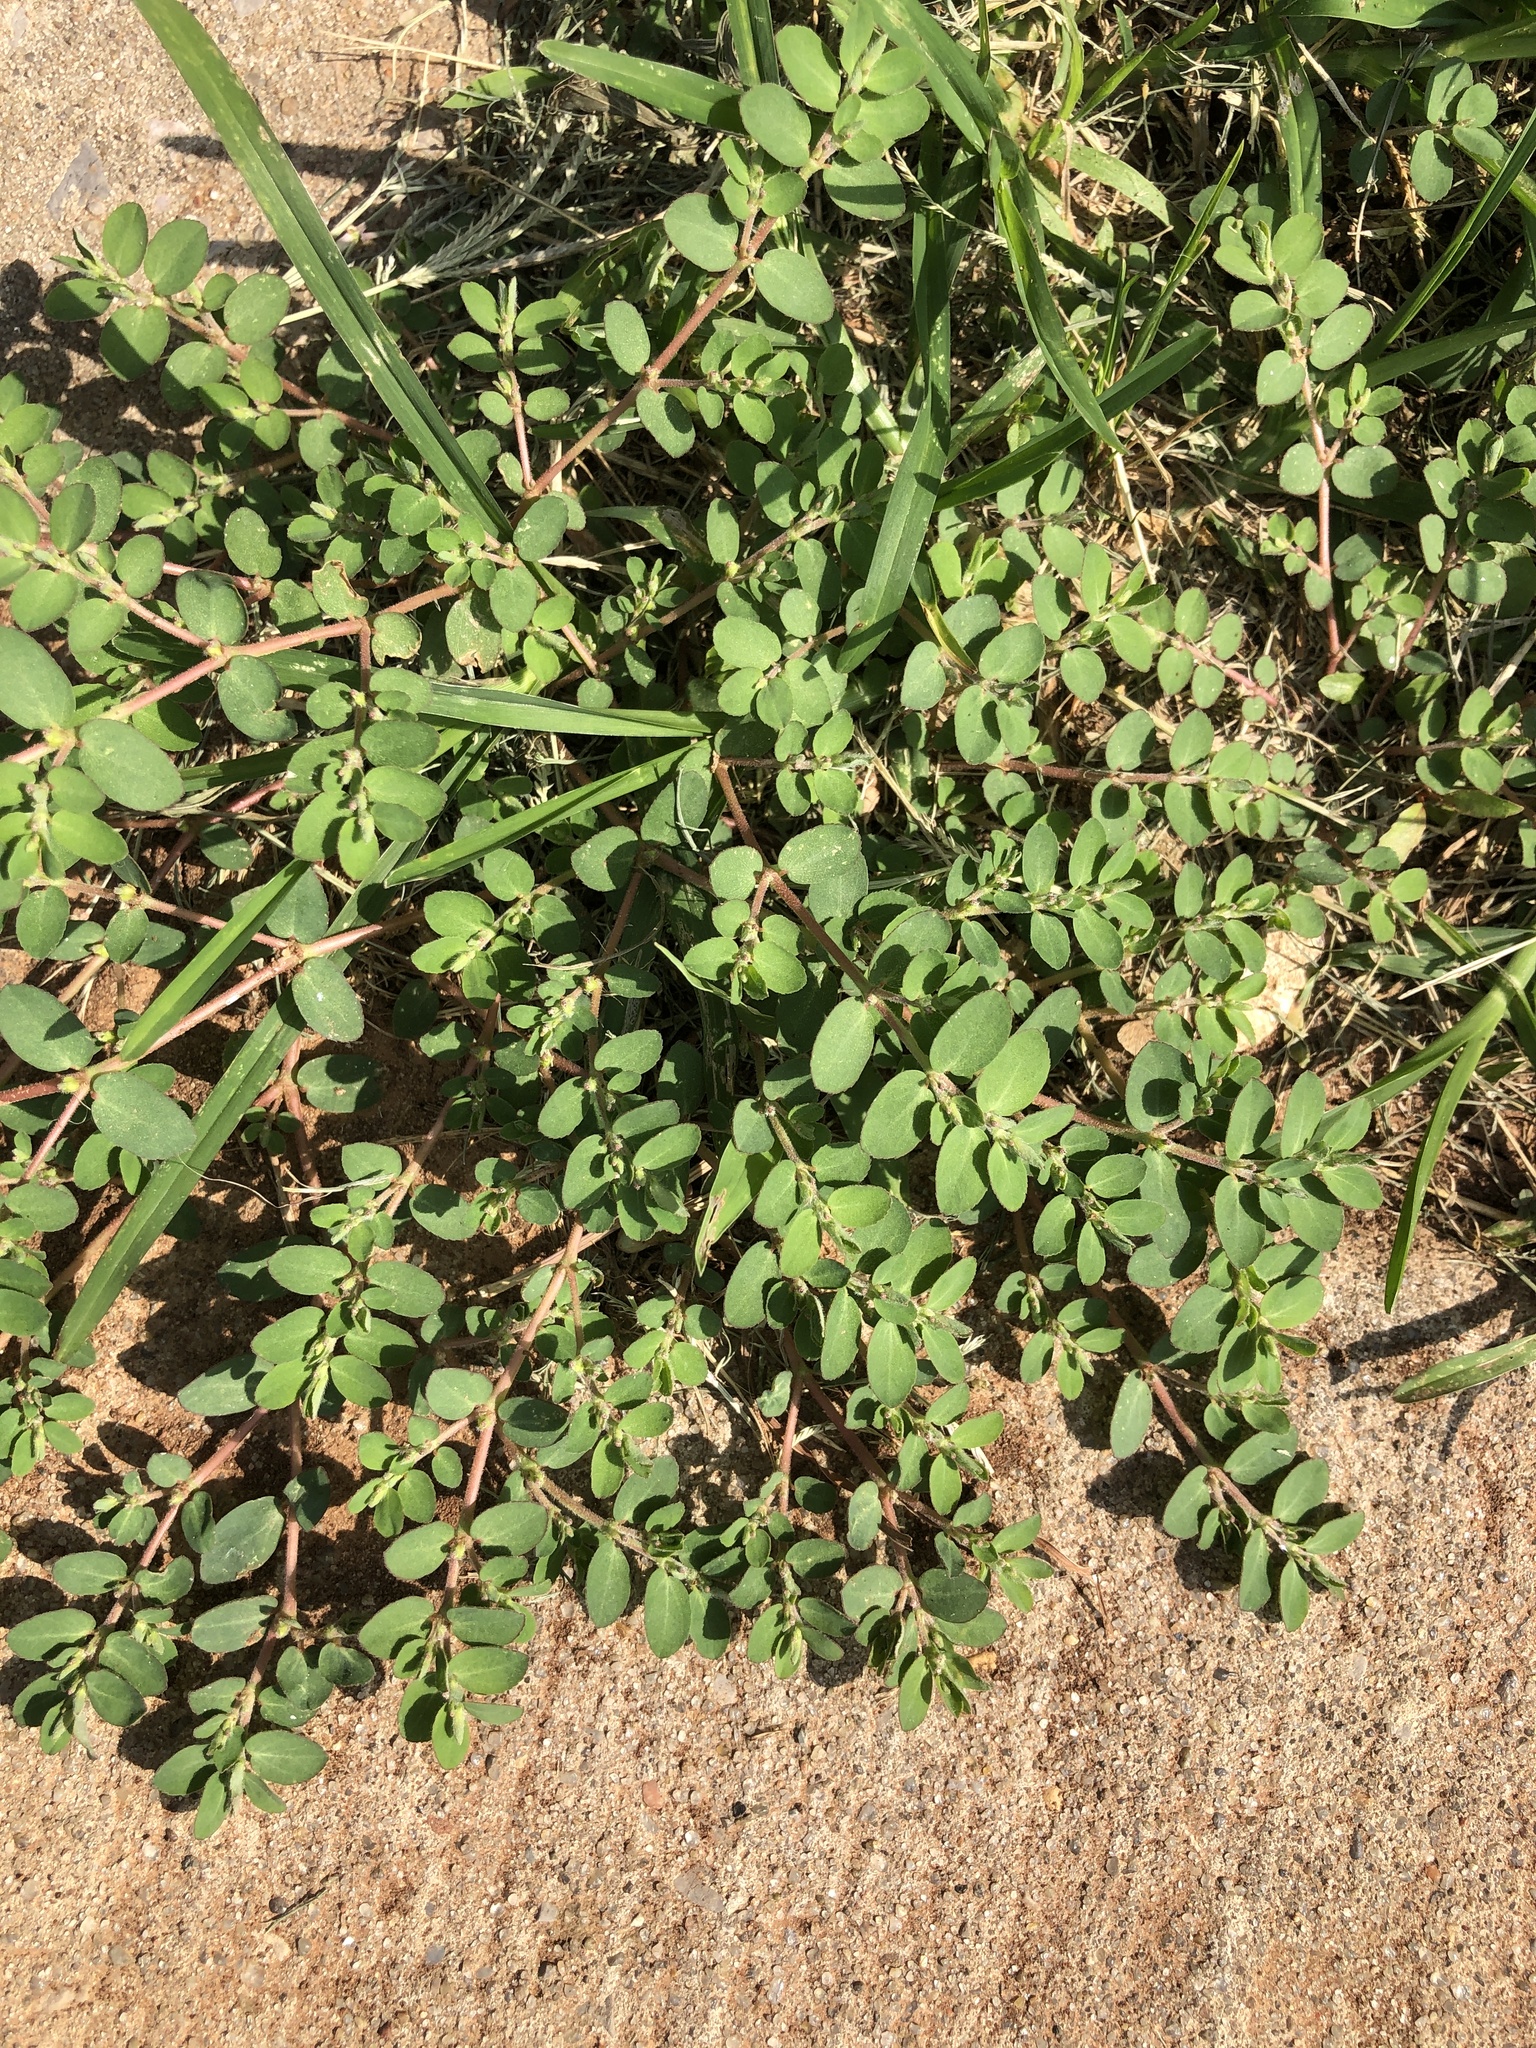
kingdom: Plantae
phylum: Tracheophyta
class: Magnoliopsida
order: Malpighiales
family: Euphorbiaceae
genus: Euphorbia
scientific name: Euphorbia prostrata
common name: Prostrate sandmat
